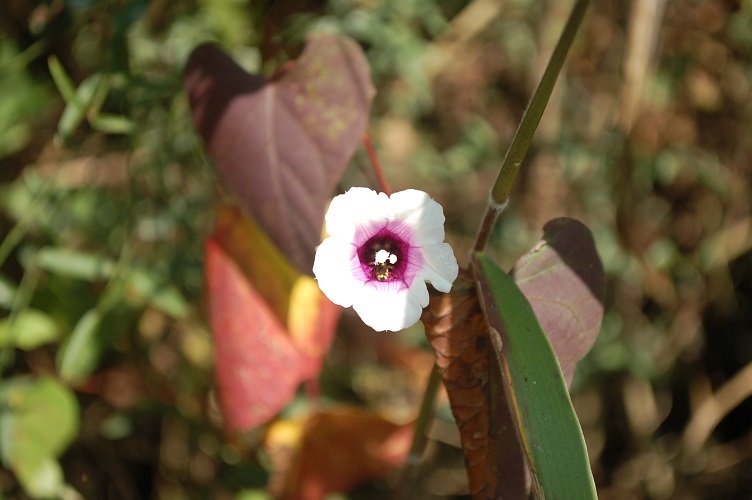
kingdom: Plantae
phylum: Tracheophyta
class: Magnoliopsida
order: Solanales
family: Convolvulaceae
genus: Ipomoea
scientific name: Ipomoea batatas
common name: Sweet-potato
